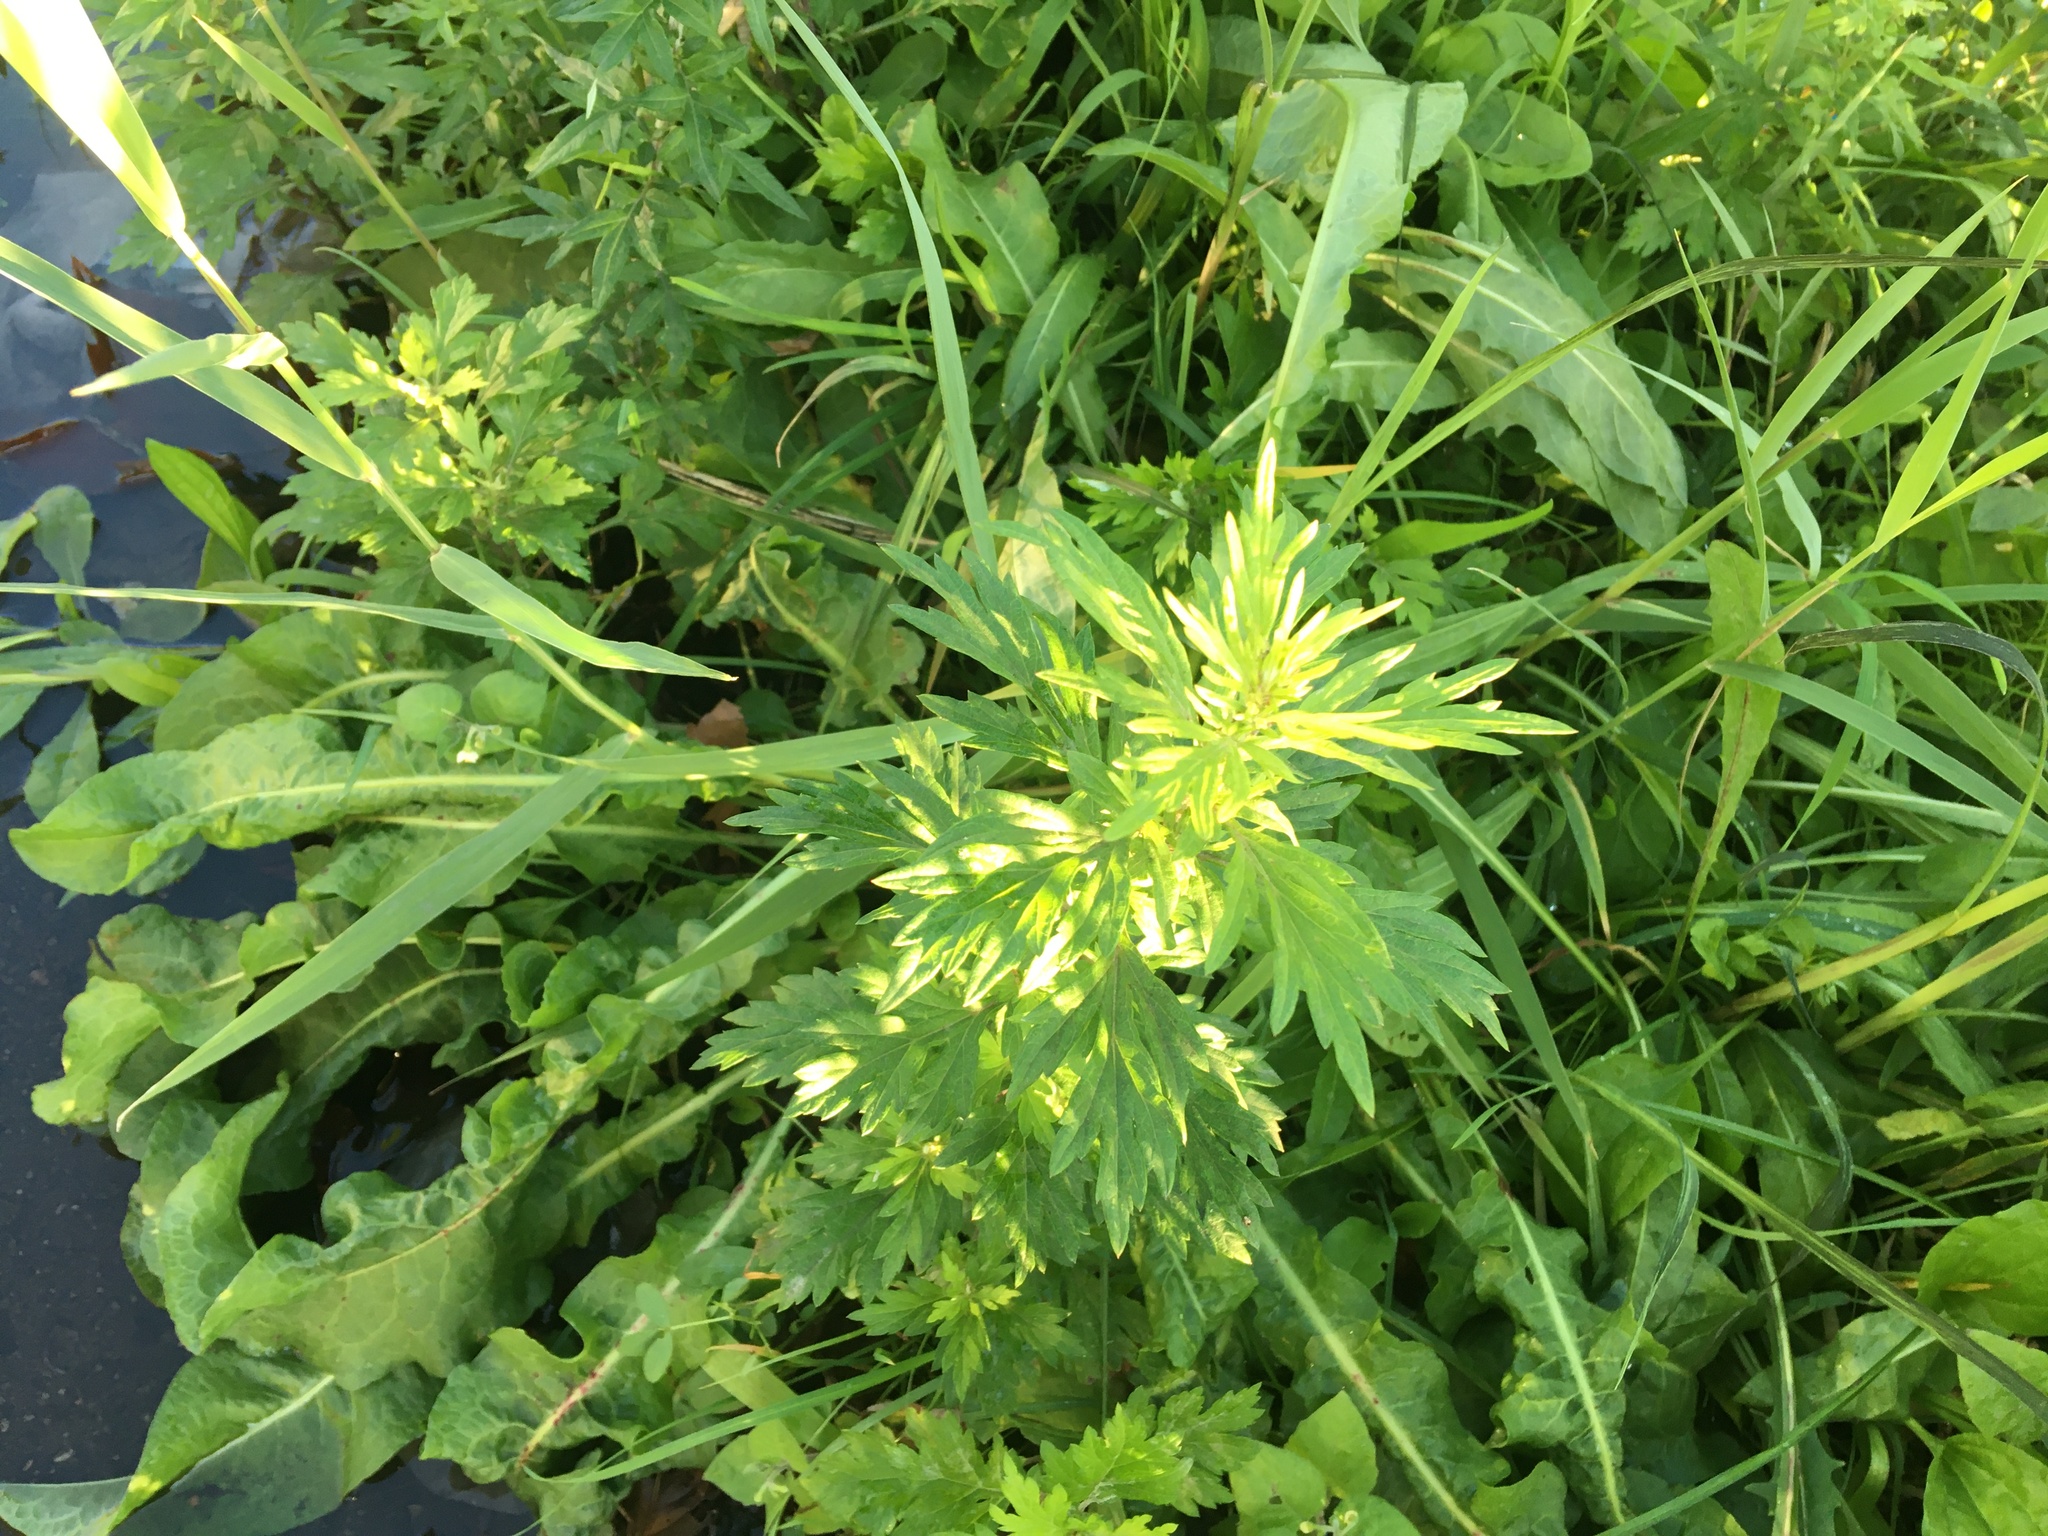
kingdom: Plantae
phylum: Tracheophyta
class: Magnoliopsida
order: Asterales
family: Asteraceae
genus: Artemisia
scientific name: Artemisia vulgaris
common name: Mugwort
